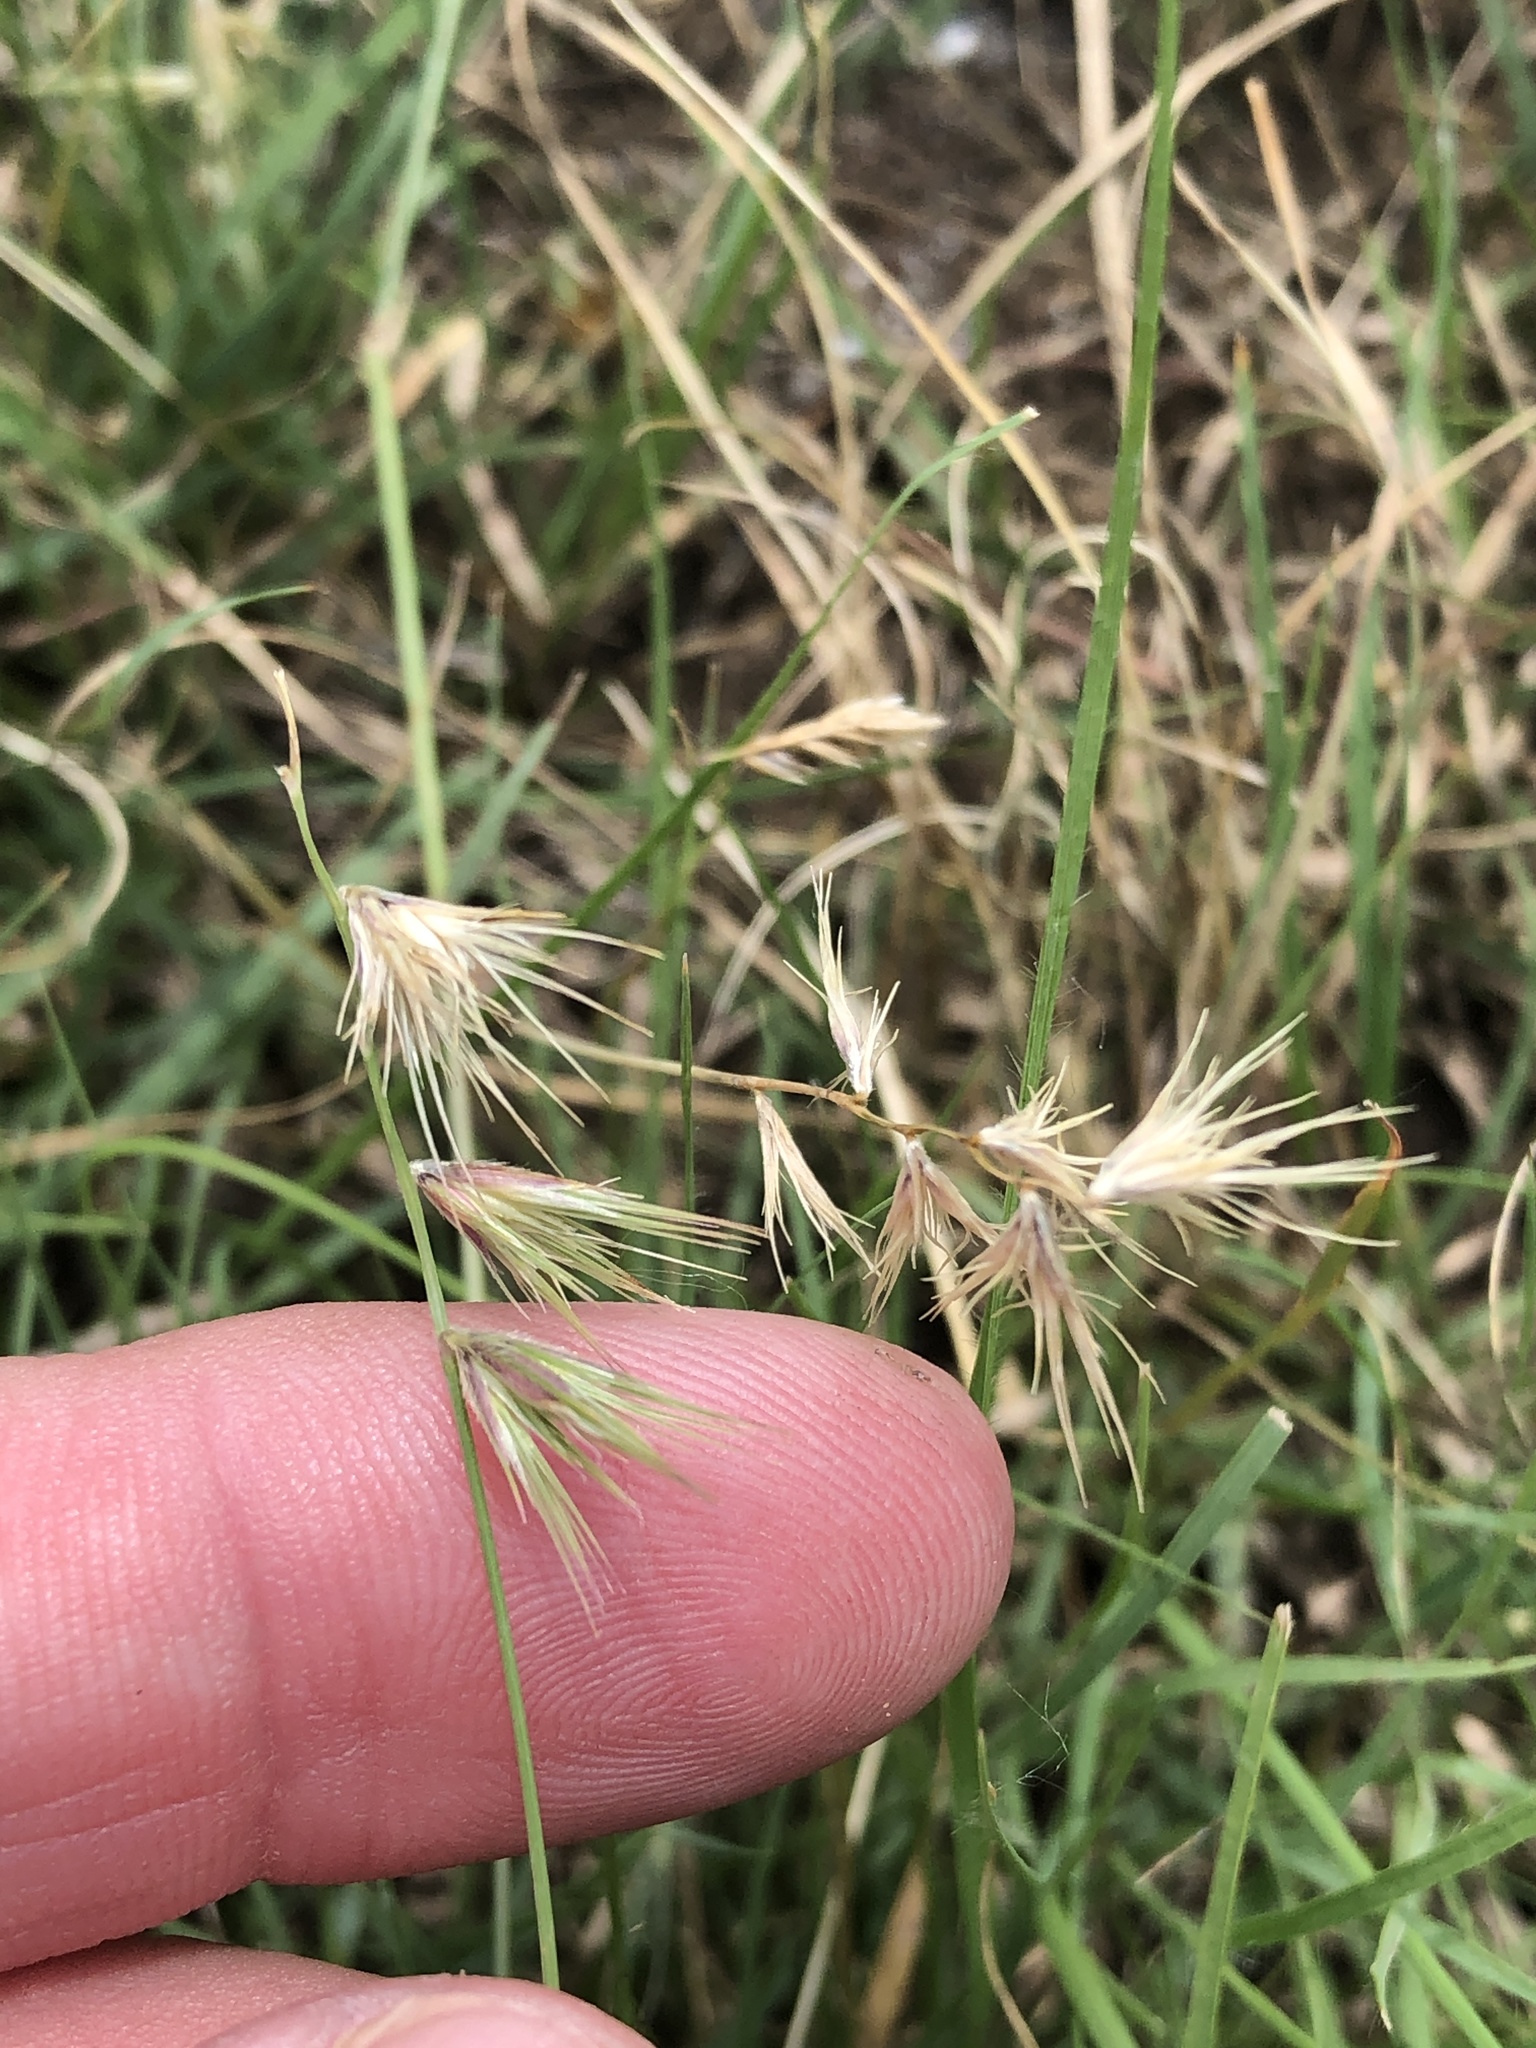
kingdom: Plantae
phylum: Tracheophyta
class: Liliopsida
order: Poales
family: Poaceae
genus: Bouteloua
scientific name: Bouteloua rigidiseta
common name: Texas grama
